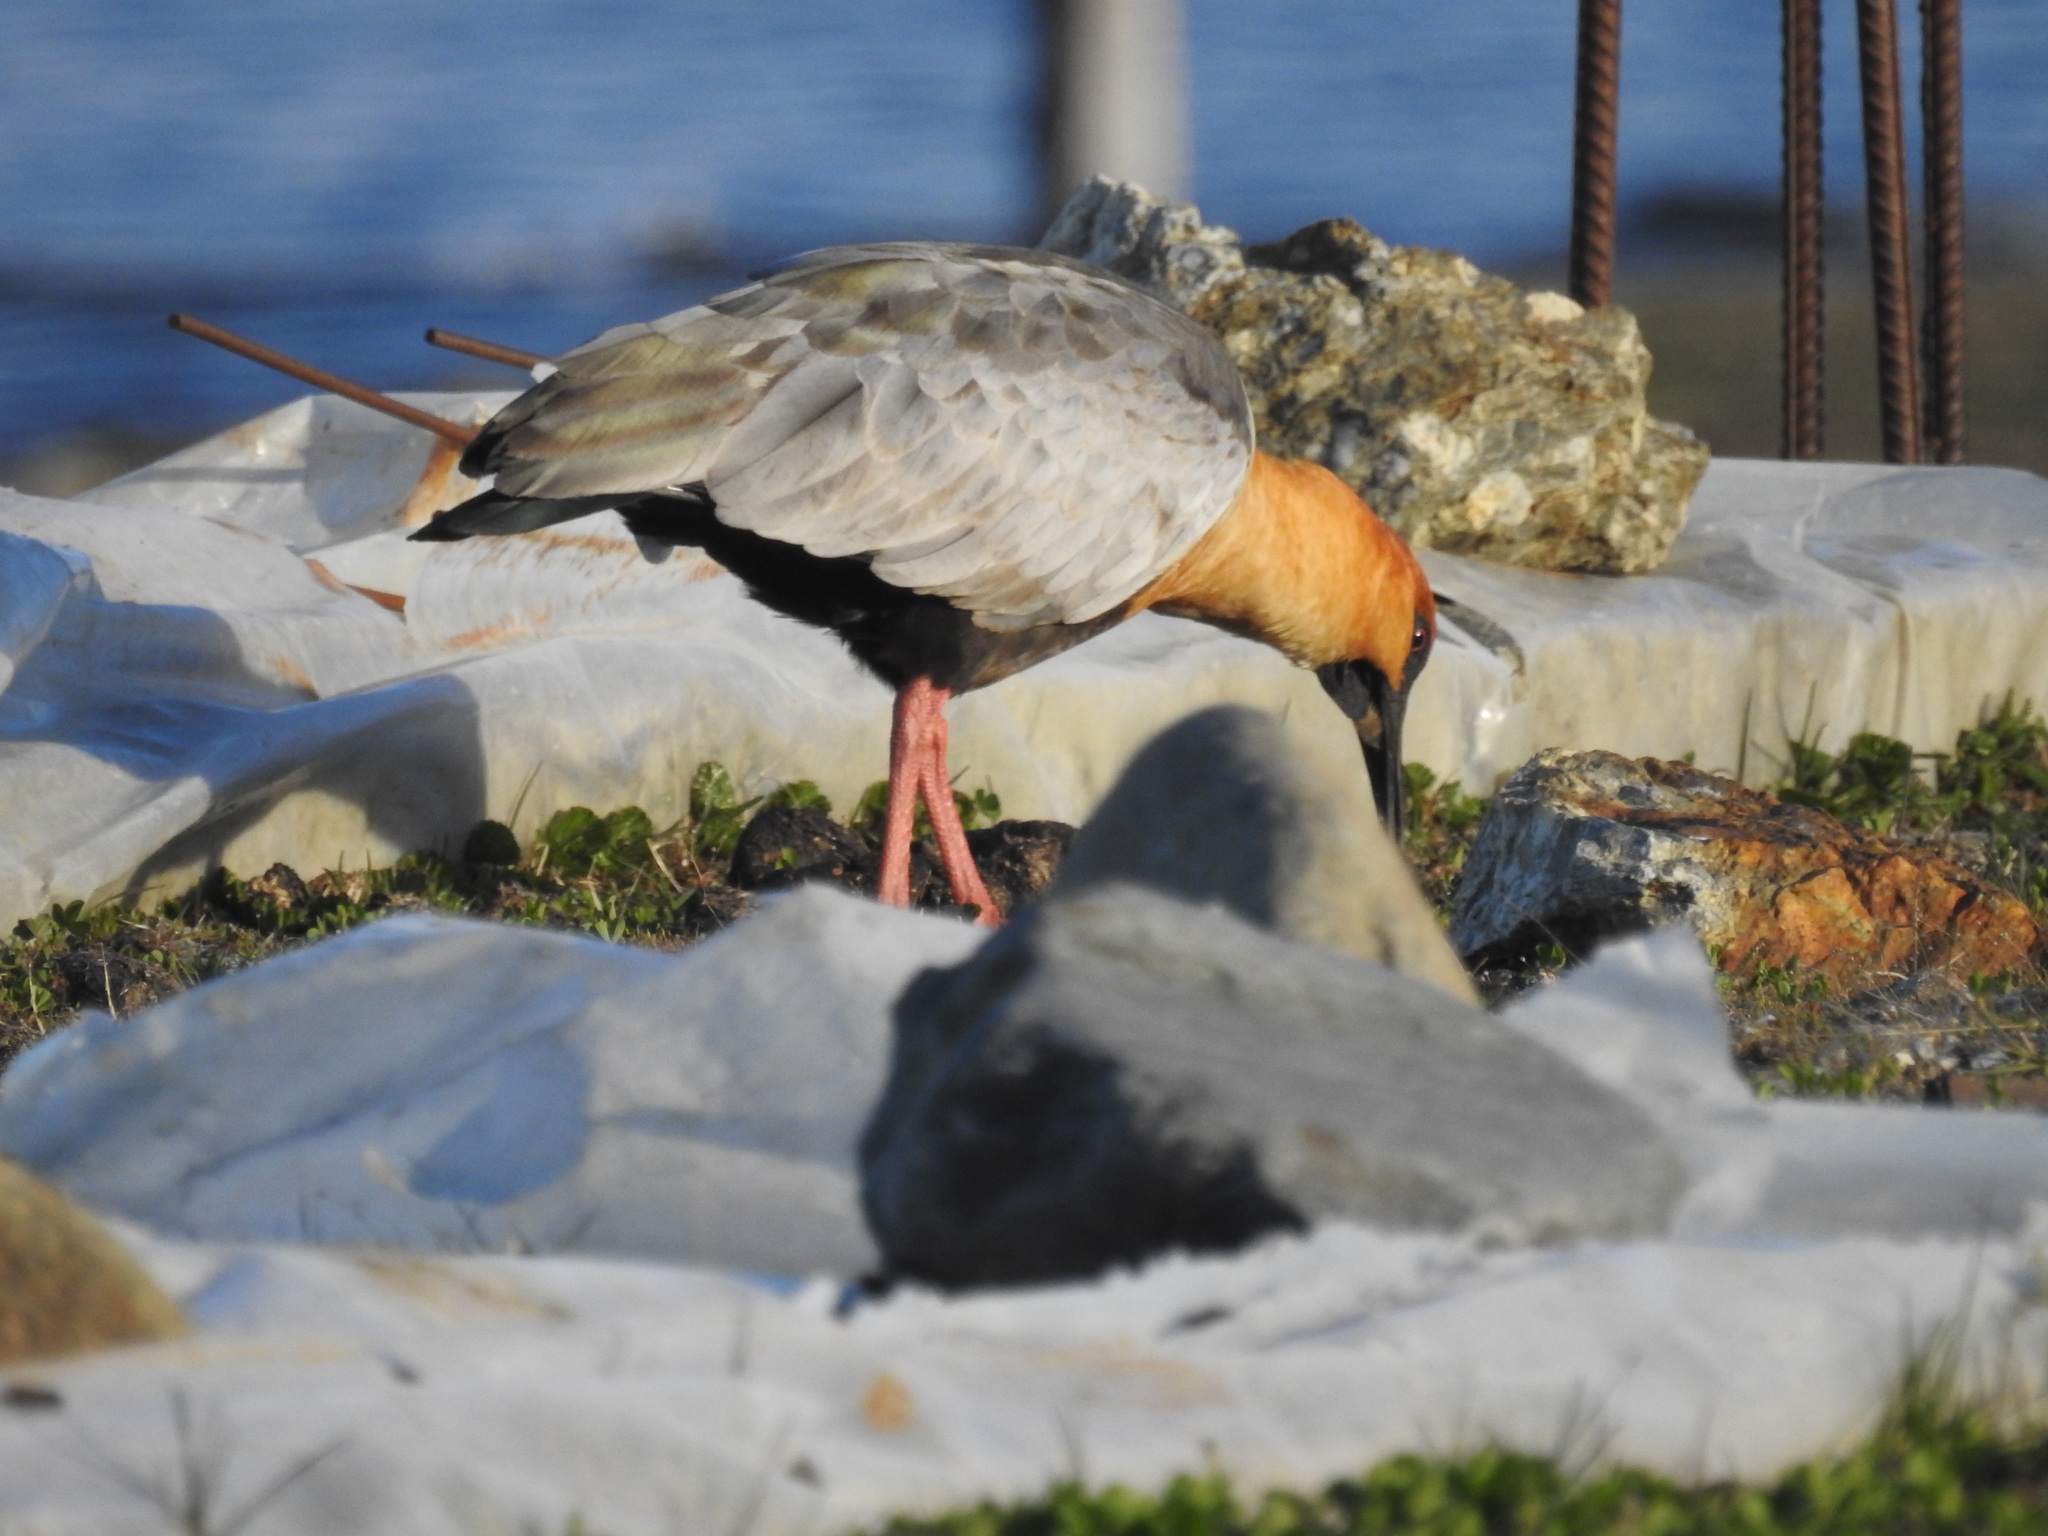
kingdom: Animalia
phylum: Chordata
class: Aves
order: Pelecaniformes
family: Threskiornithidae
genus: Theristicus
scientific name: Theristicus melanopis
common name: Black-faced ibis
